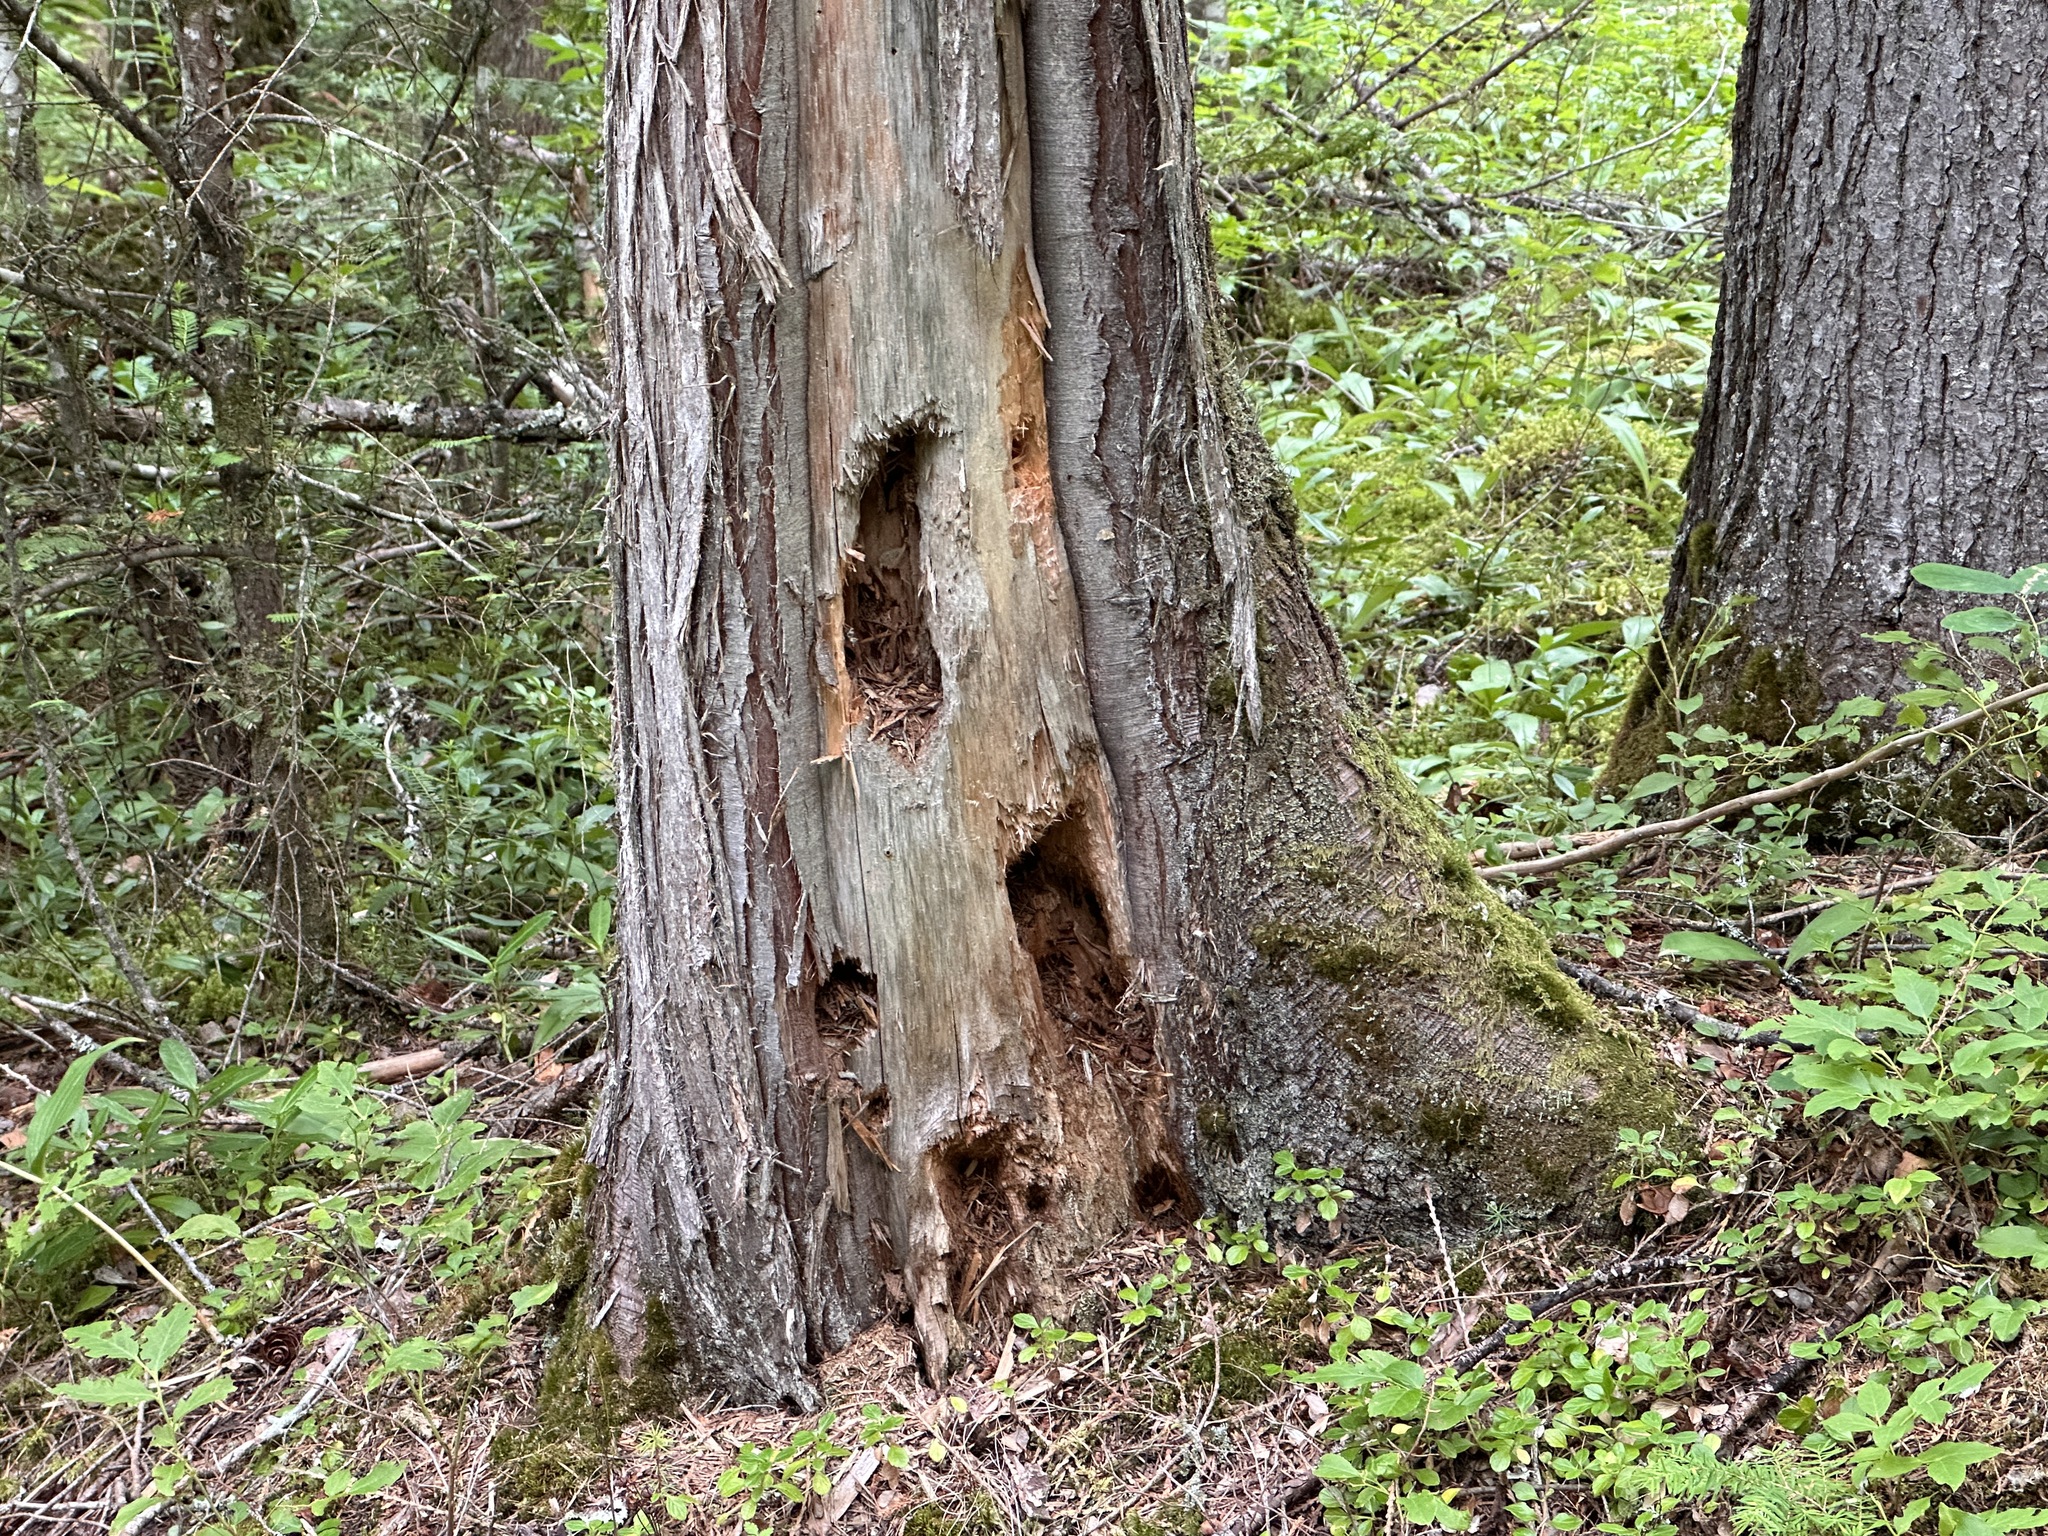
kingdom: Animalia
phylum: Chordata
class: Aves
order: Piciformes
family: Picidae
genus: Dryocopus
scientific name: Dryocopus pileatus
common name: Pileated woodpecker
